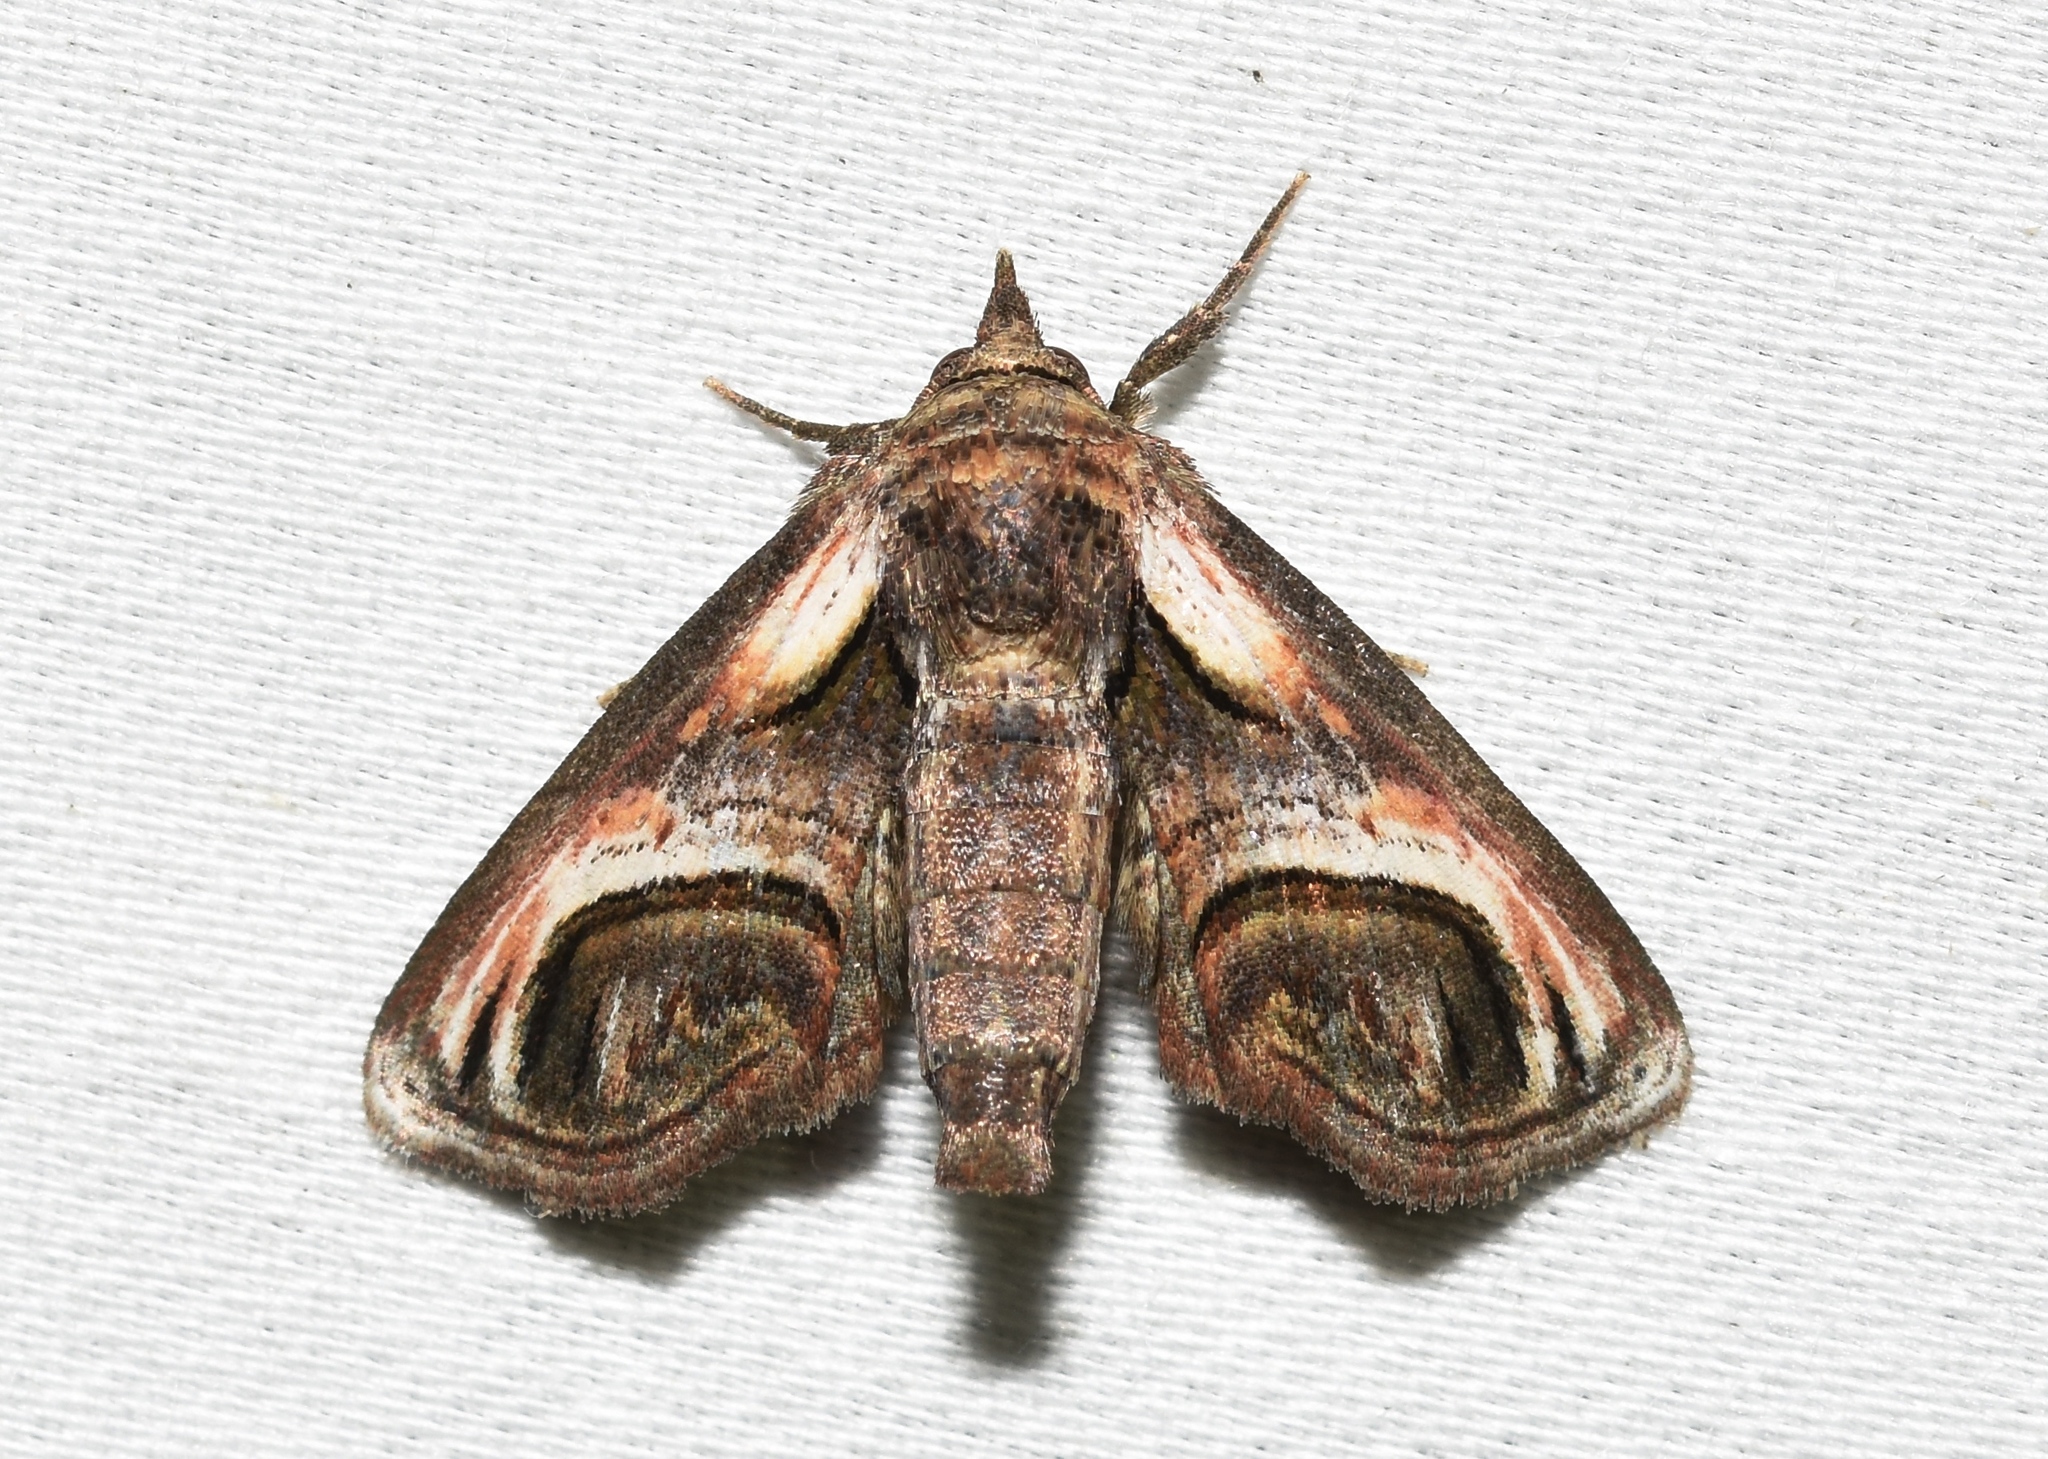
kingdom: Animalia
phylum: Arthropoda
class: Insecta
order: Lepidoptera
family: Euteliidae
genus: Paectes
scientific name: Paectes oculatrix
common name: Eyed paectes moth
